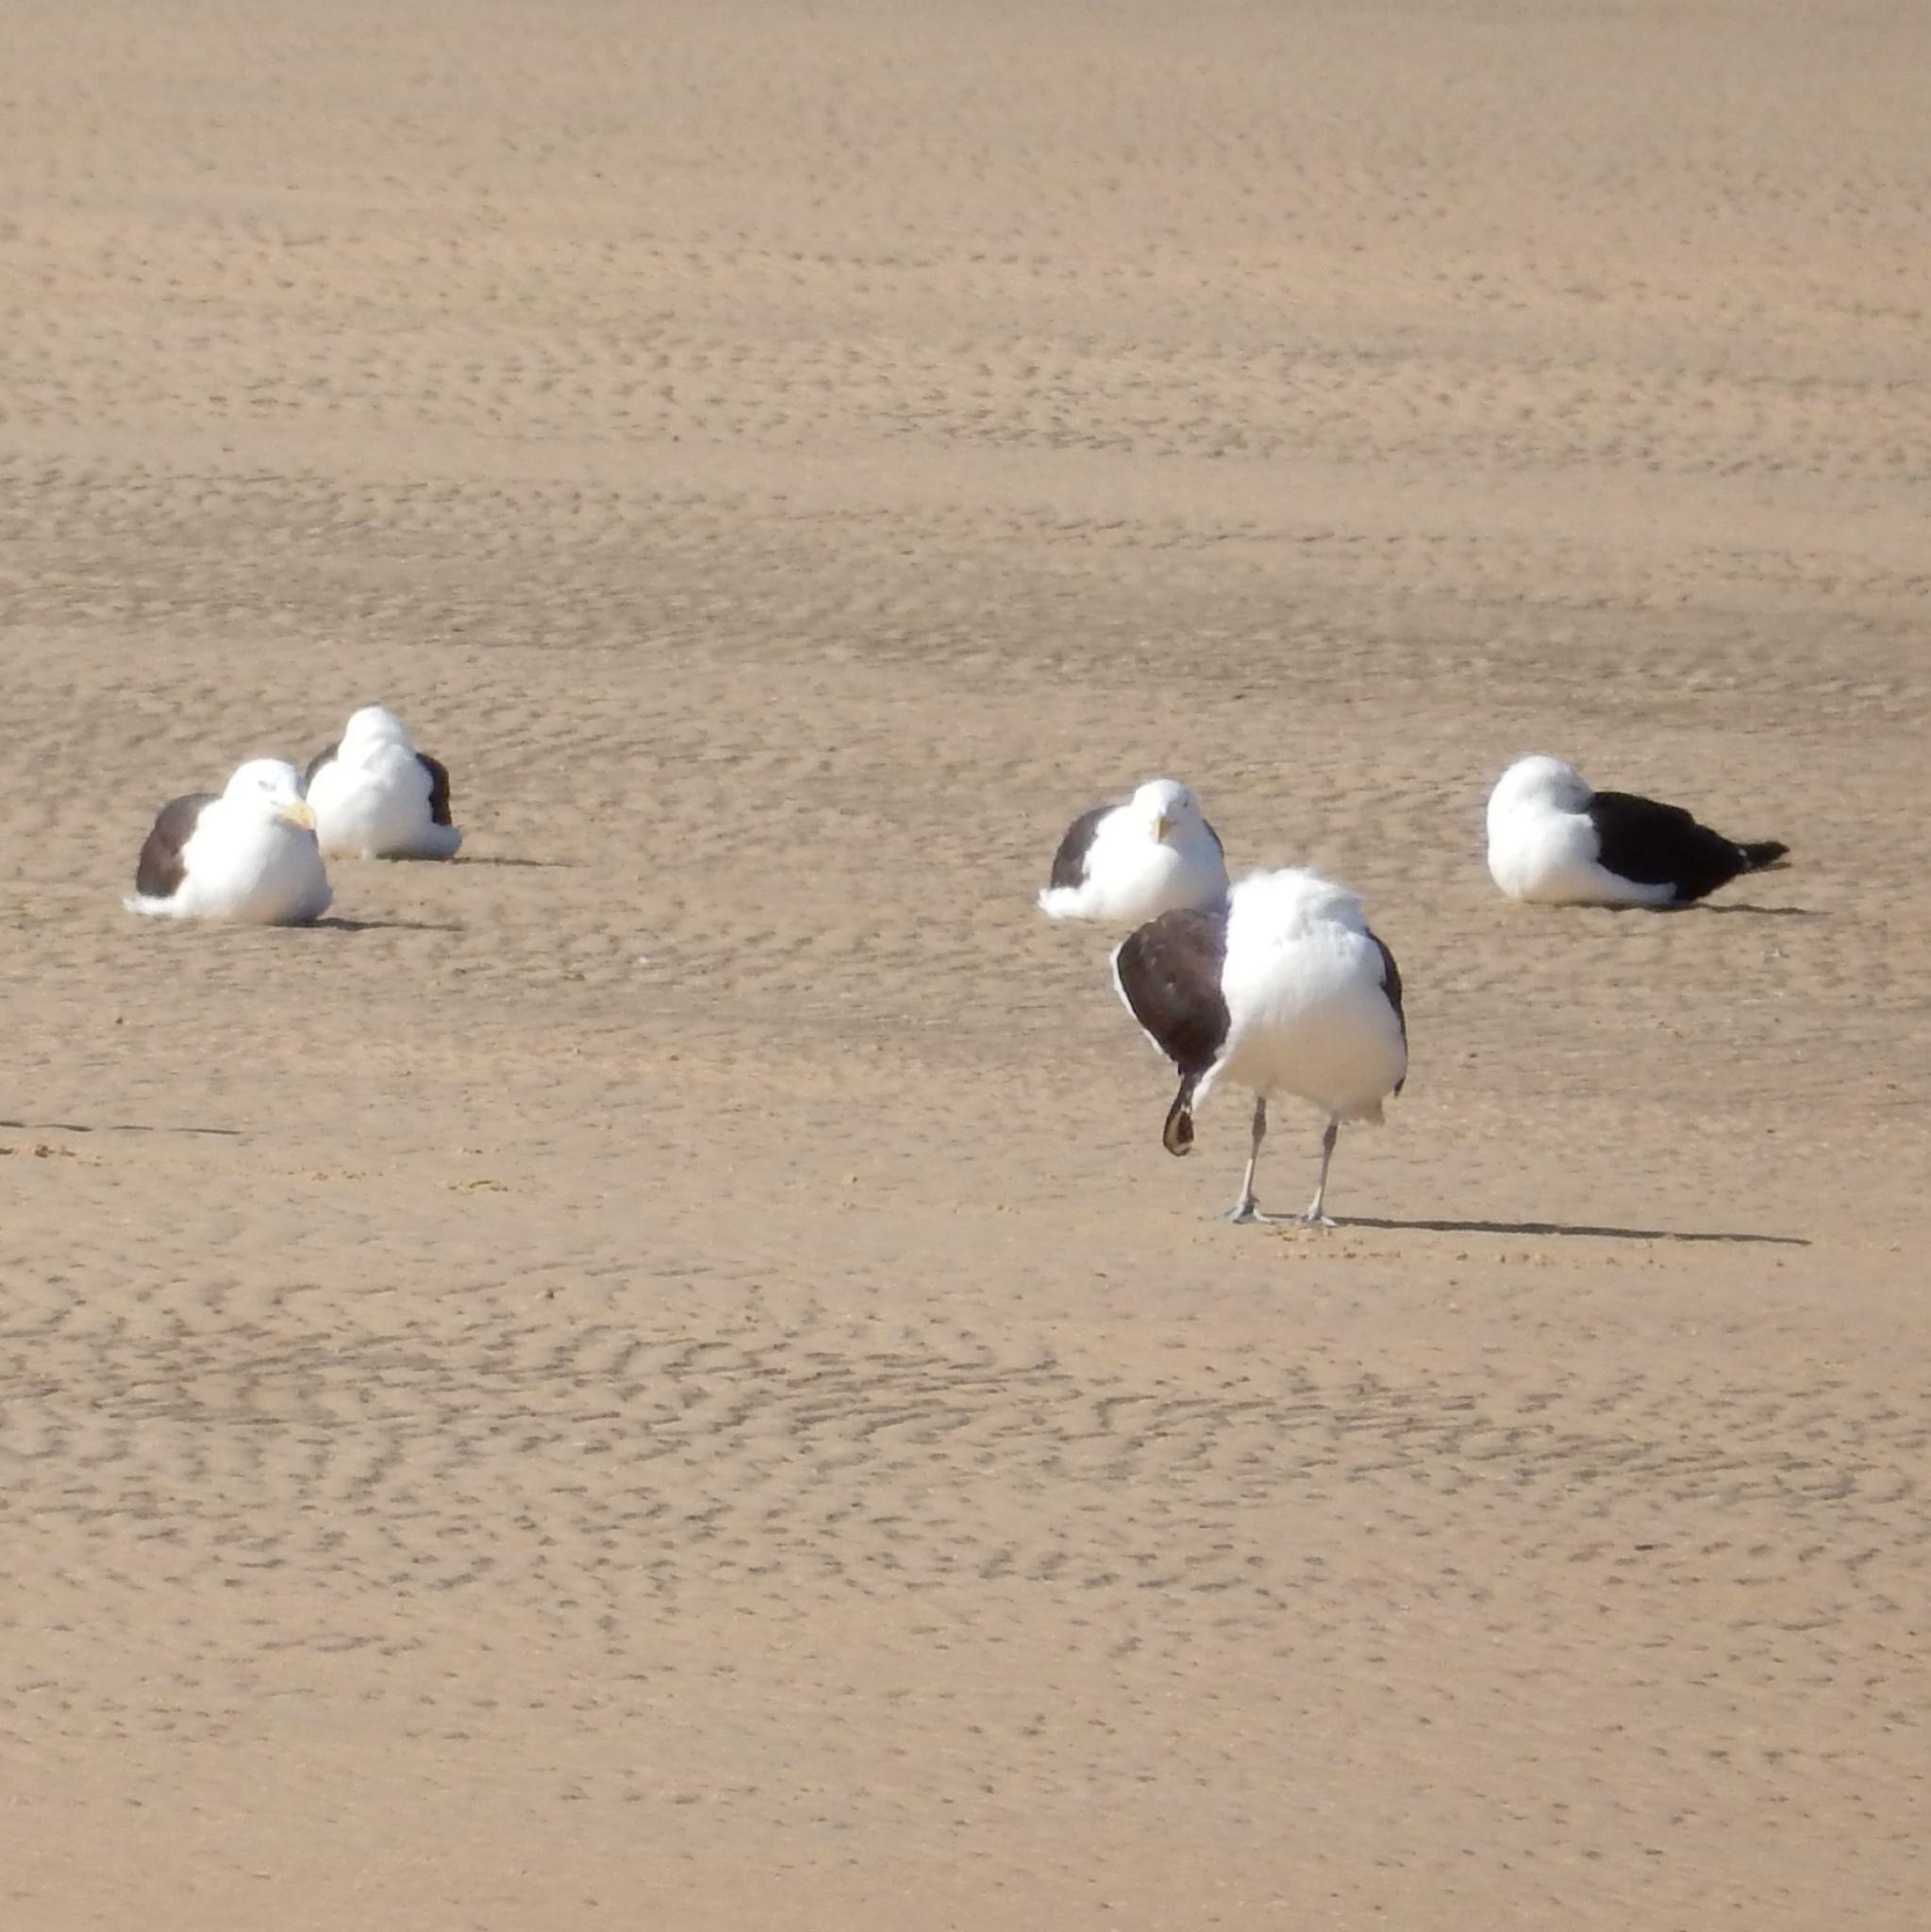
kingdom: Animalia
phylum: Chordata
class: Aves
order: Charadriiformes
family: Laridae
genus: Larus
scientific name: Larus dominicanus
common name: Kelp gull
